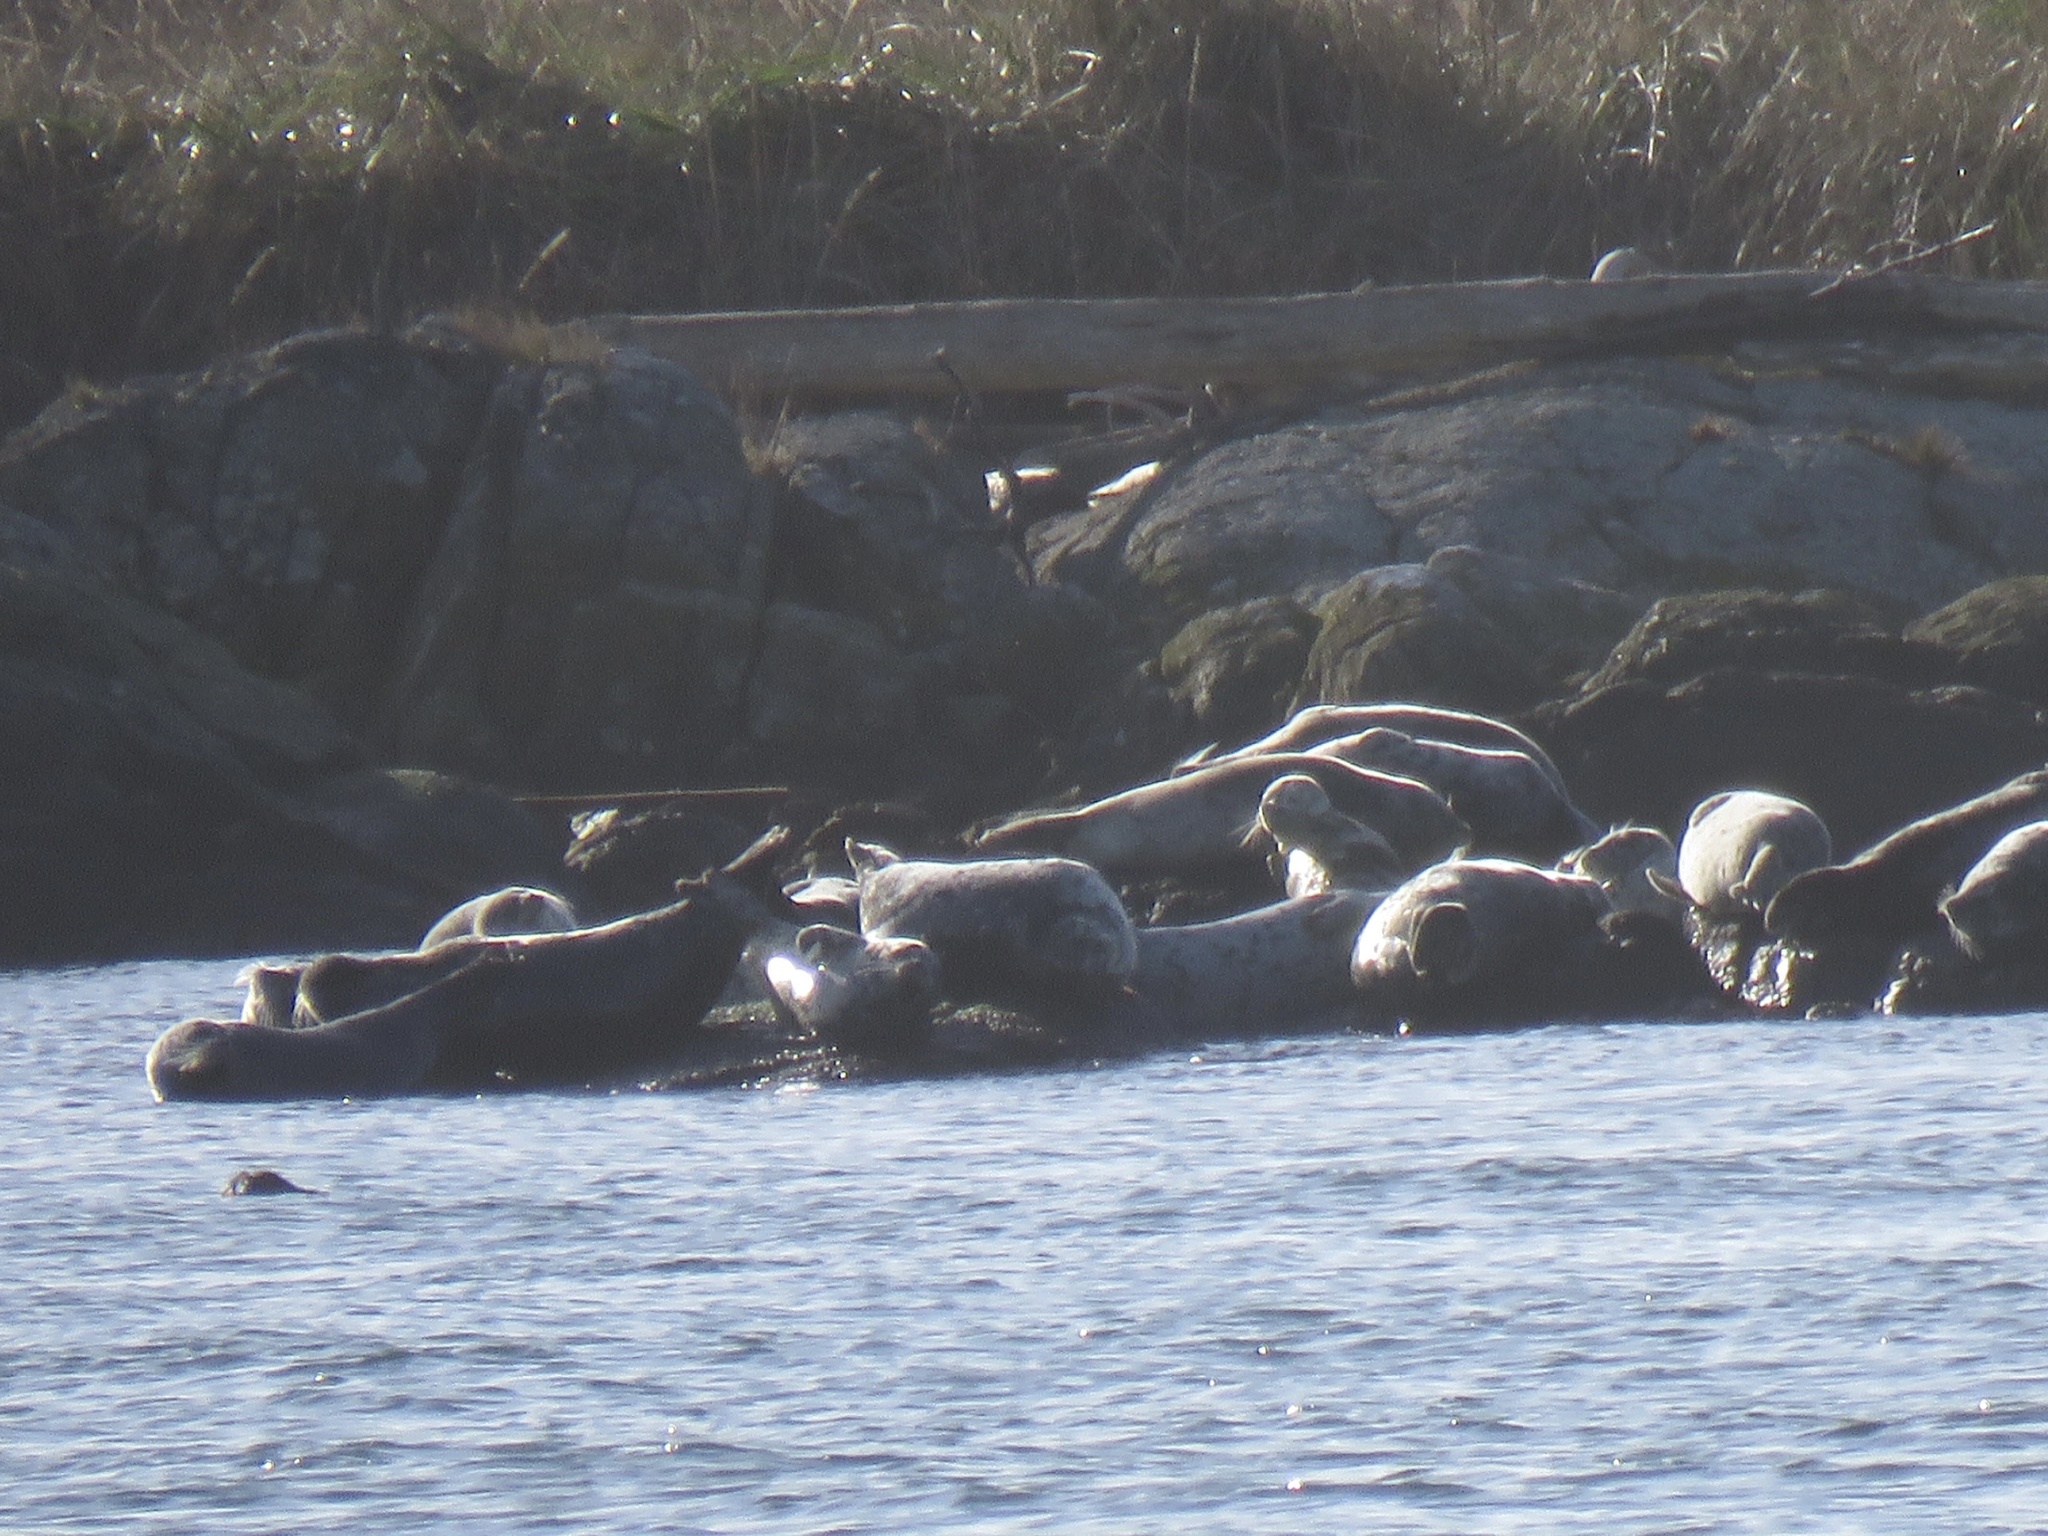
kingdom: Animalia
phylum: Chordata
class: Mammalia
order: Carnivora
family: Phocidae
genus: Phoca
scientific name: Phoca vitulina
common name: Harbor seal
